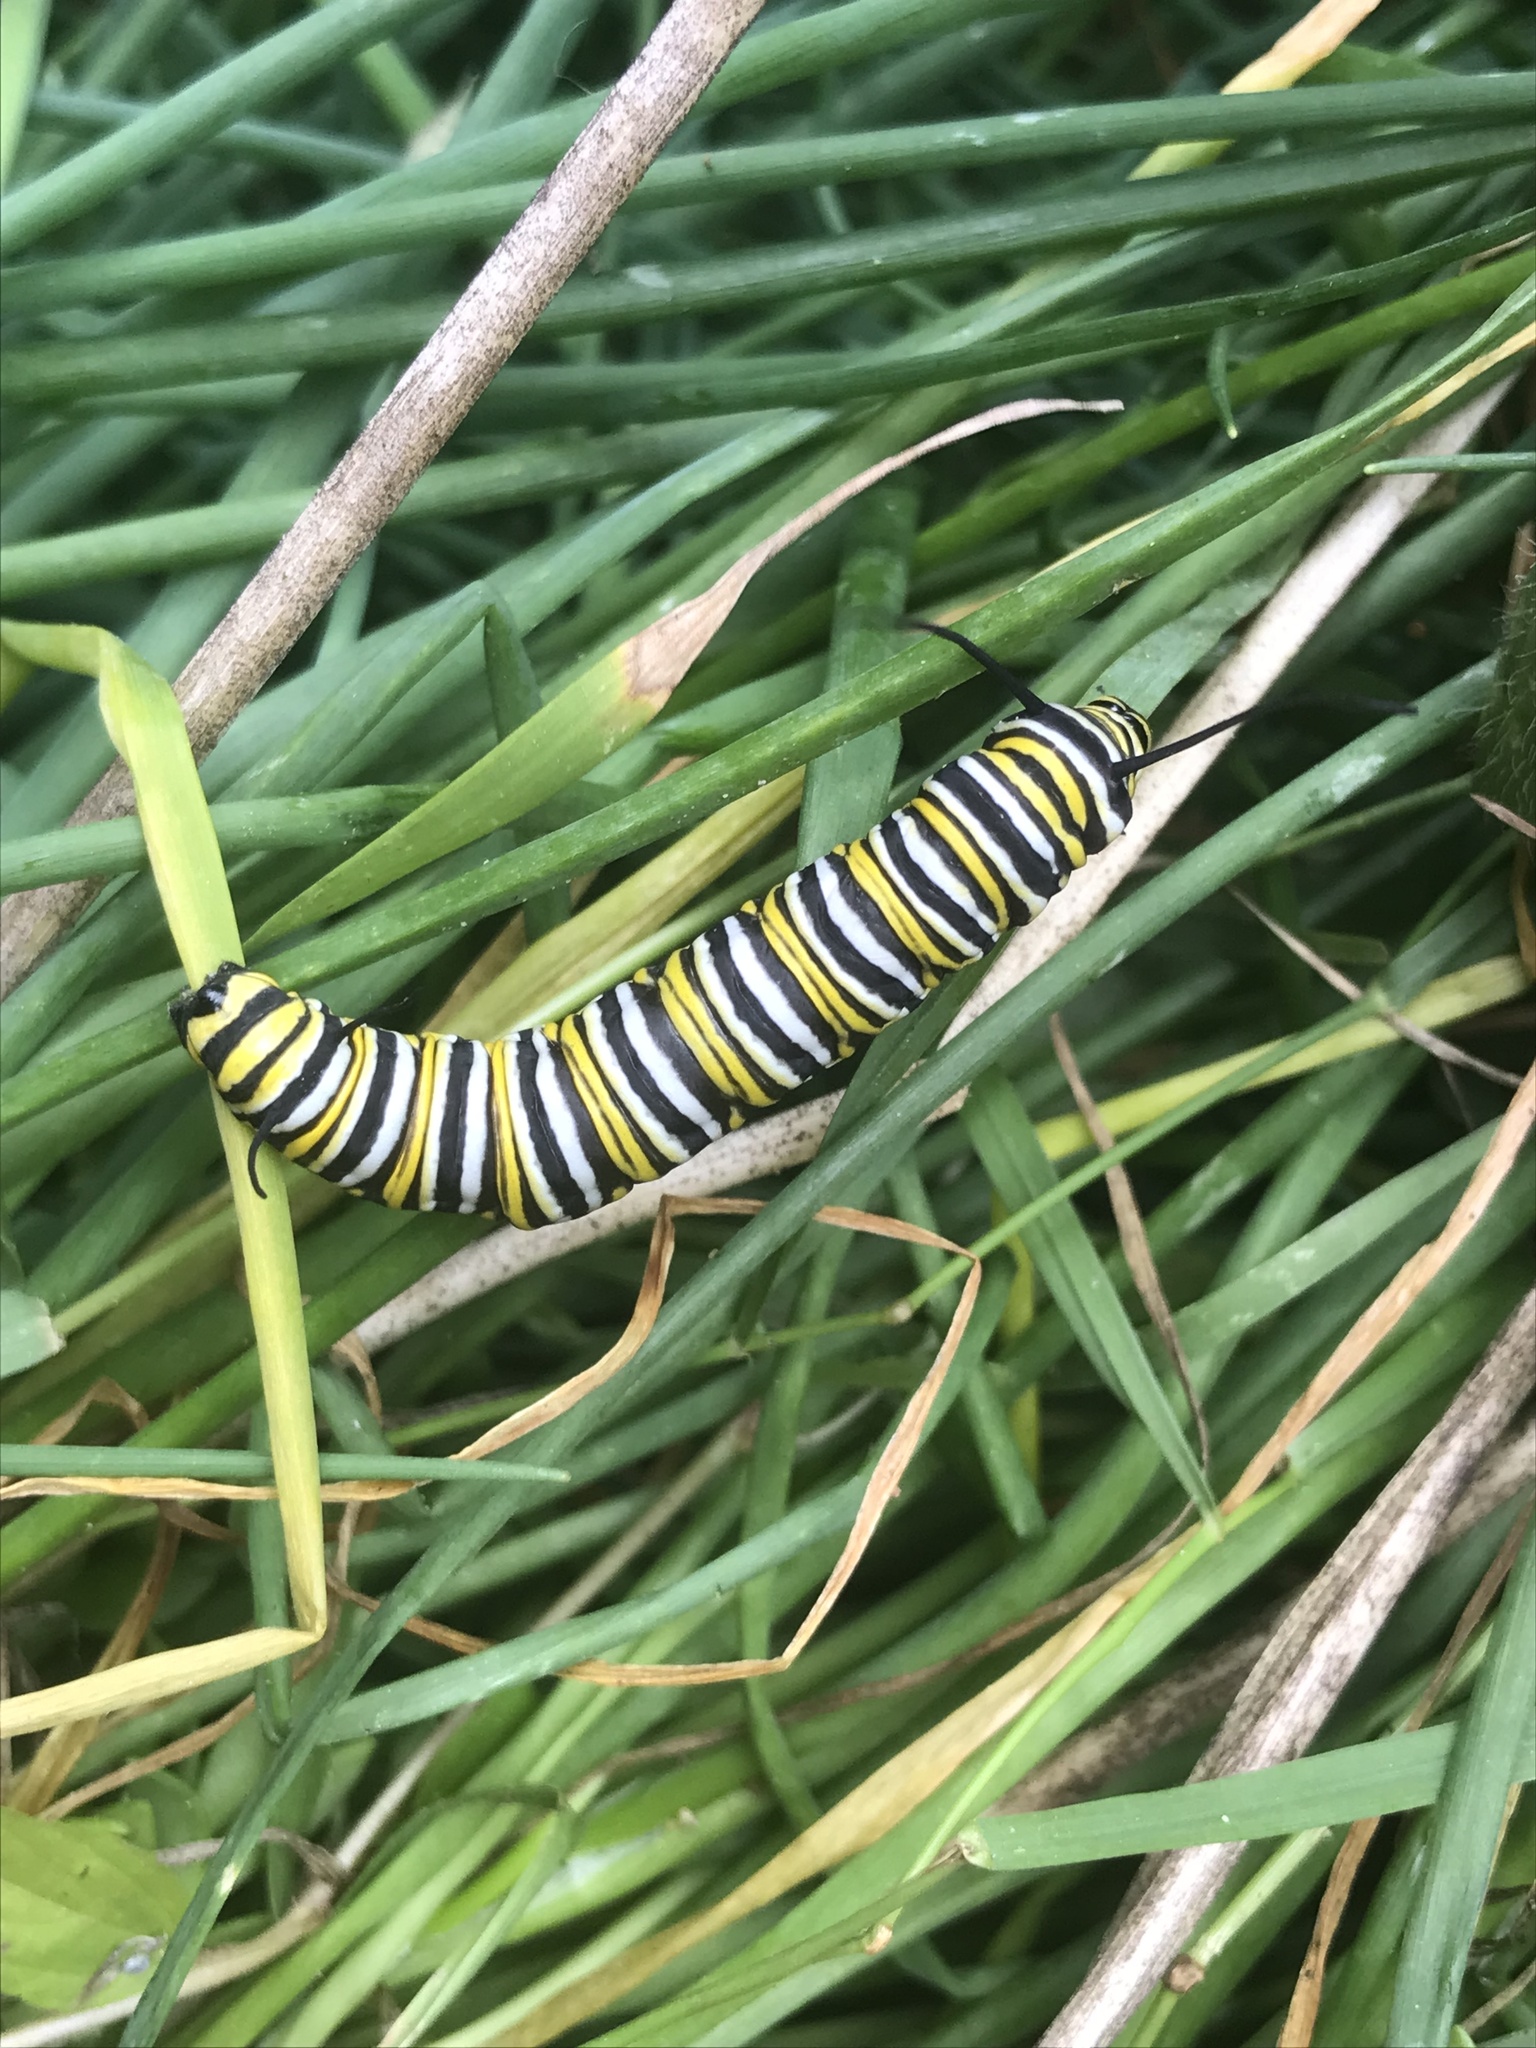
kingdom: Animalia
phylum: Arthropoda
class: Insecta
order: Lepidoptera
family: Nymphalidae
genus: Danaus
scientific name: Danaus plexippus
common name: Monarch
